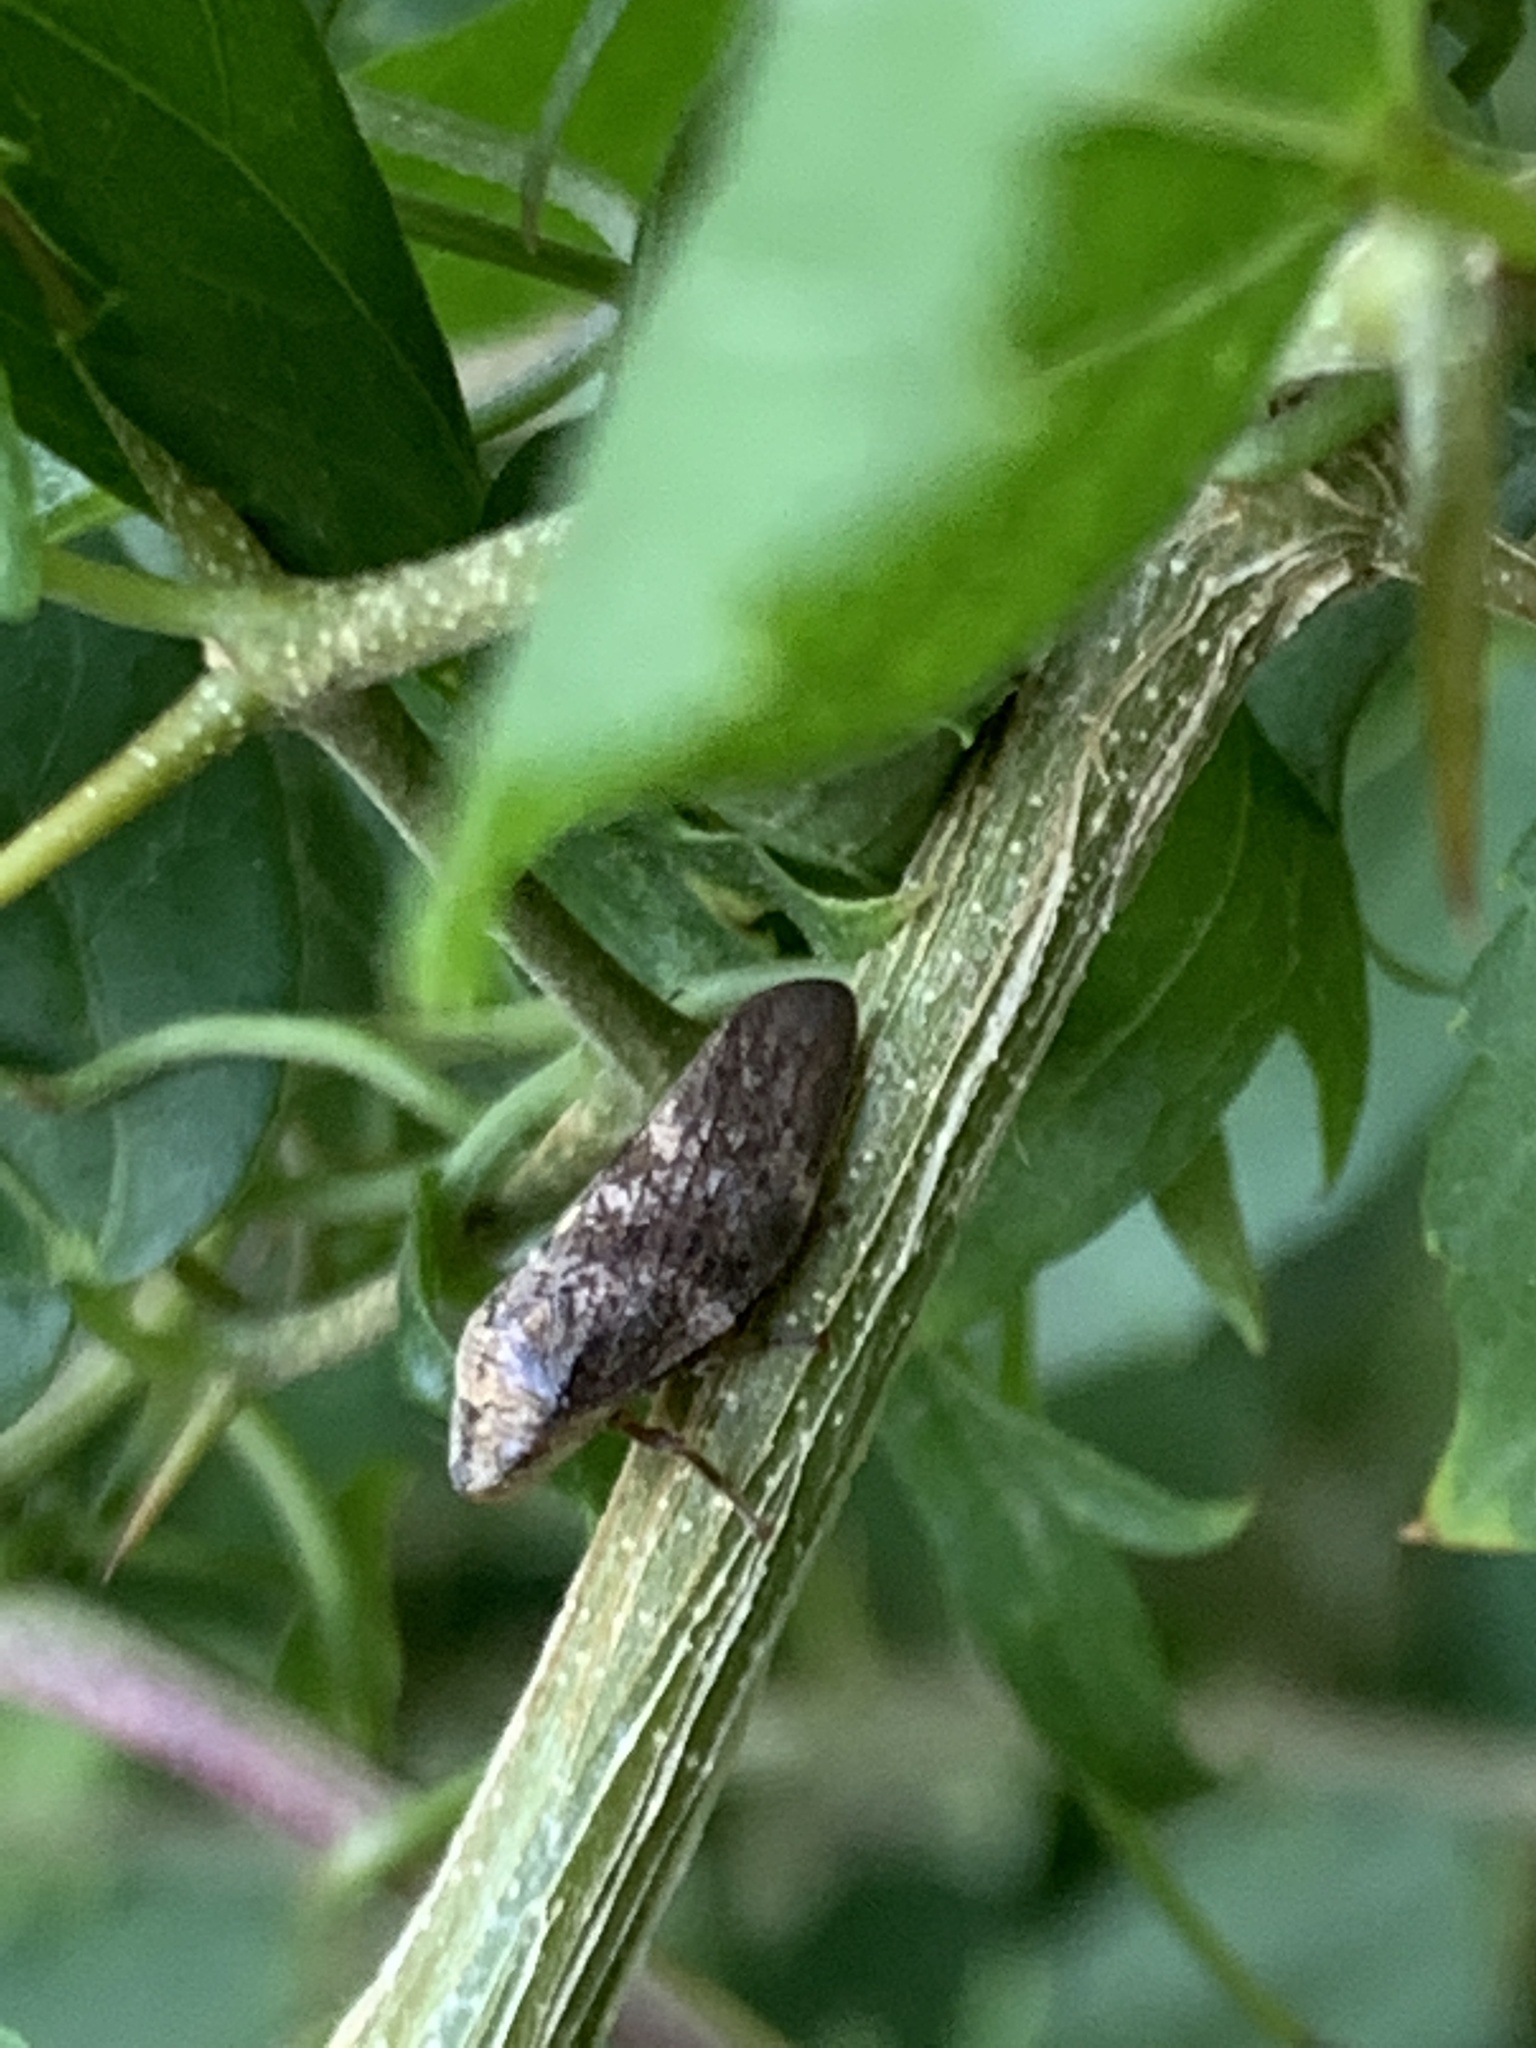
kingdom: Animalia
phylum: Arthropoda
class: Insecta
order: Hemiptera
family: Aphrophoridae
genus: Cephisus
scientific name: Cephisus siccifolius
